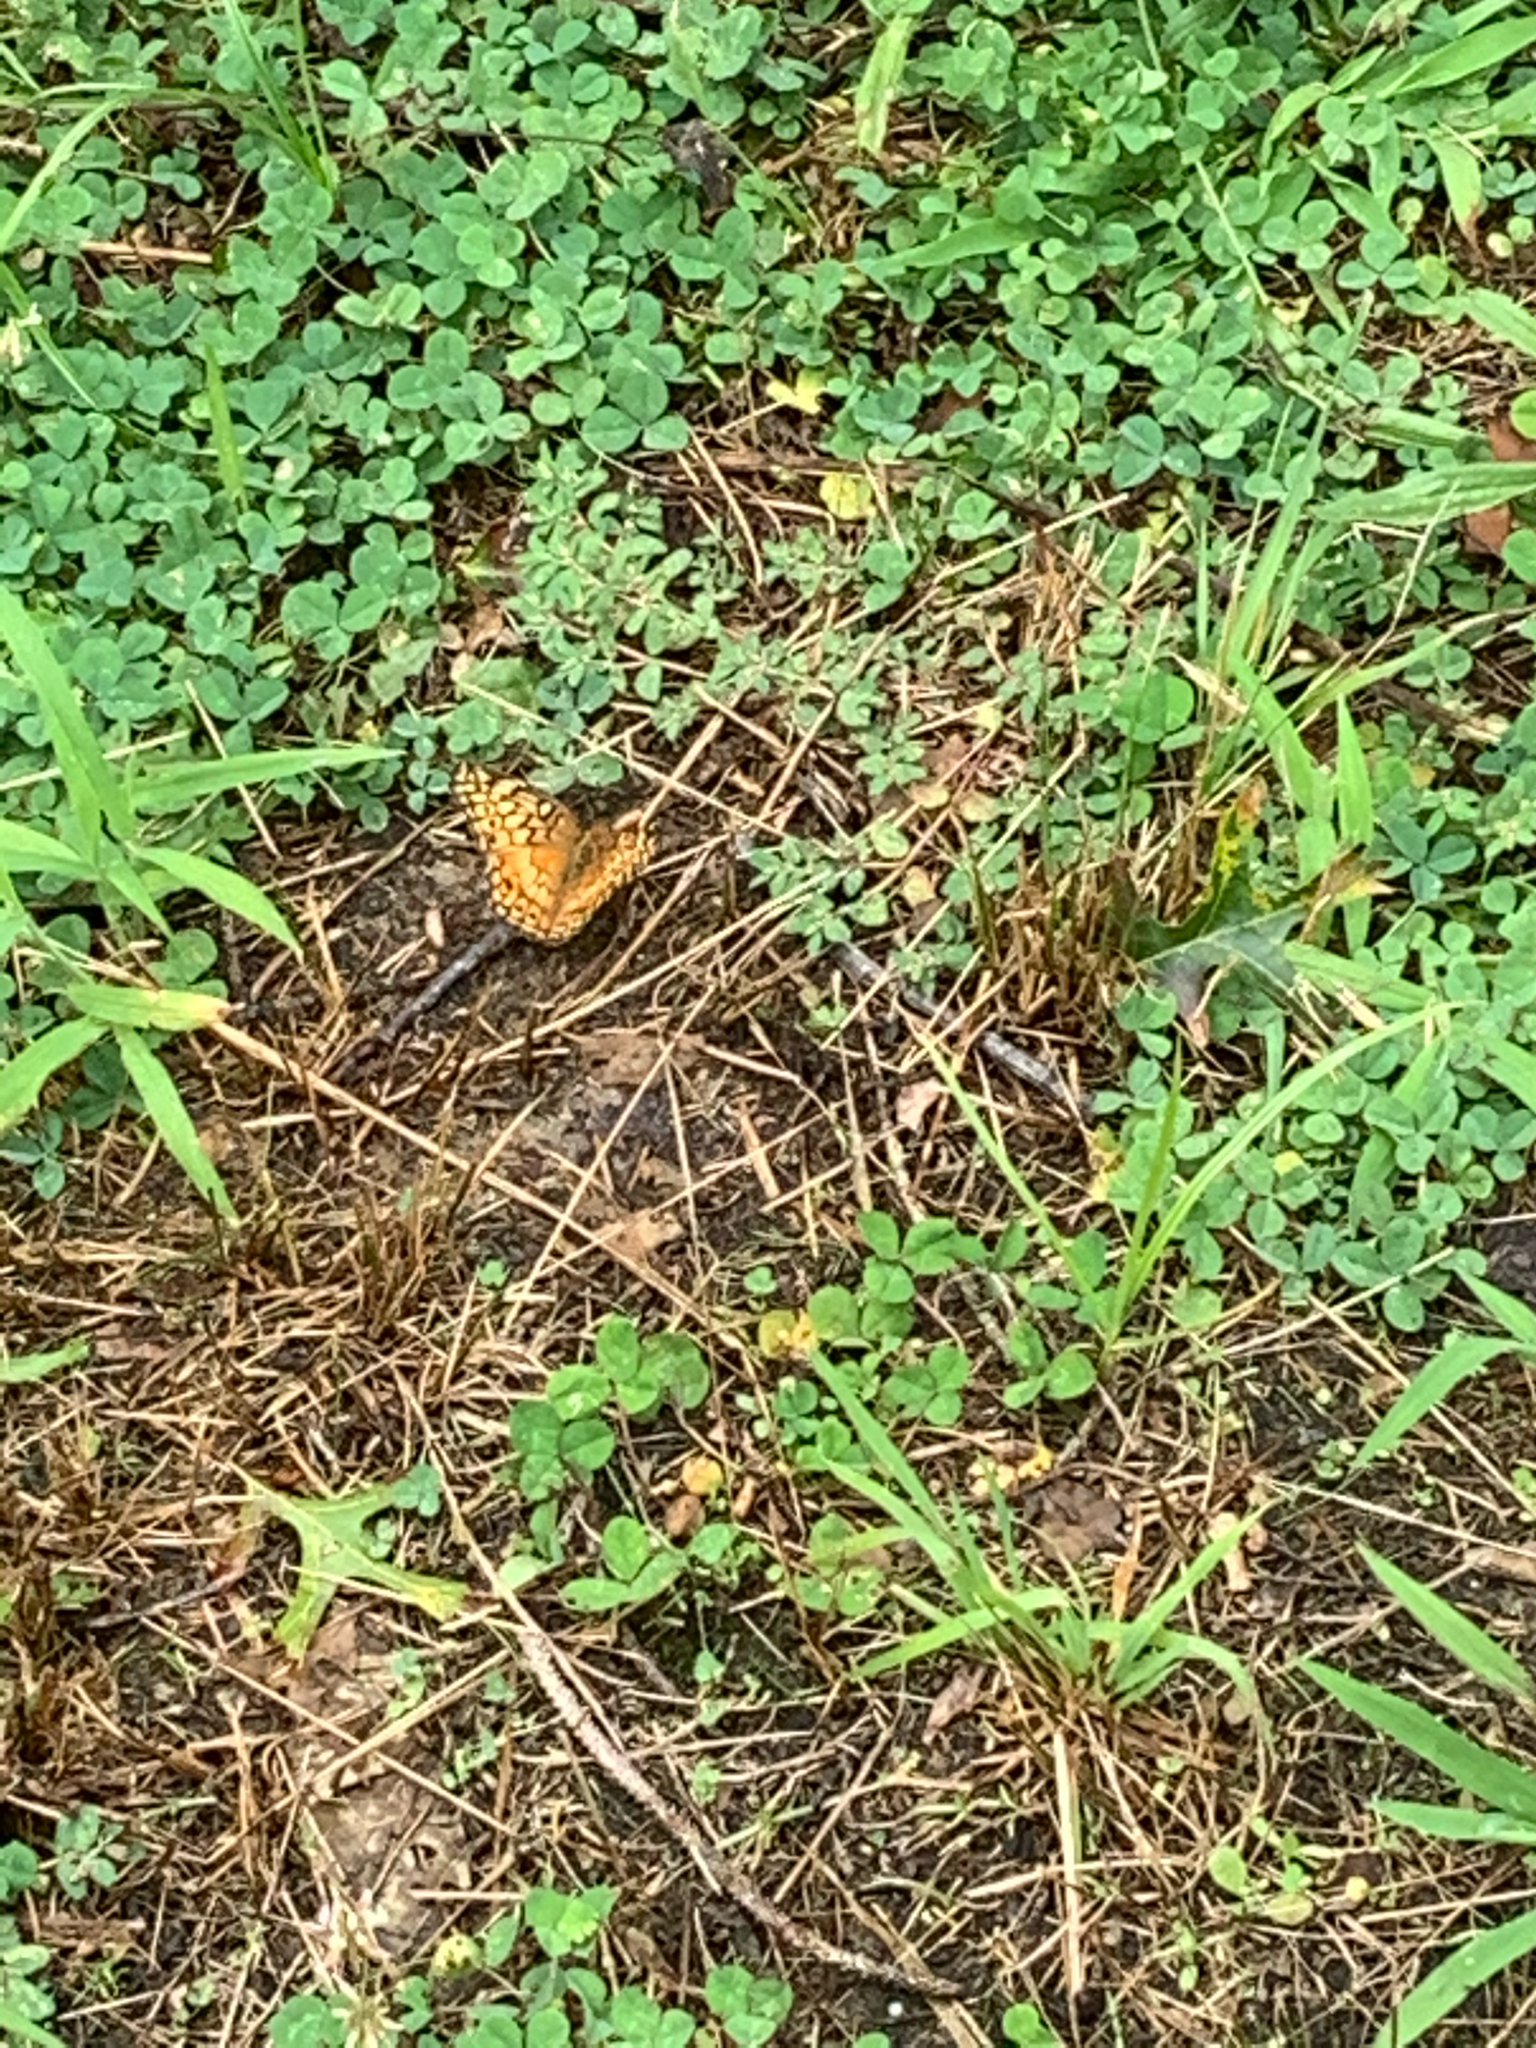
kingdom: Animalia
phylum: Arthropoda
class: Insecta
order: Lepidoptera
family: Nymphalidae
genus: Euptoieta
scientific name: Euptoieta claudia
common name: Variegated fritillary
